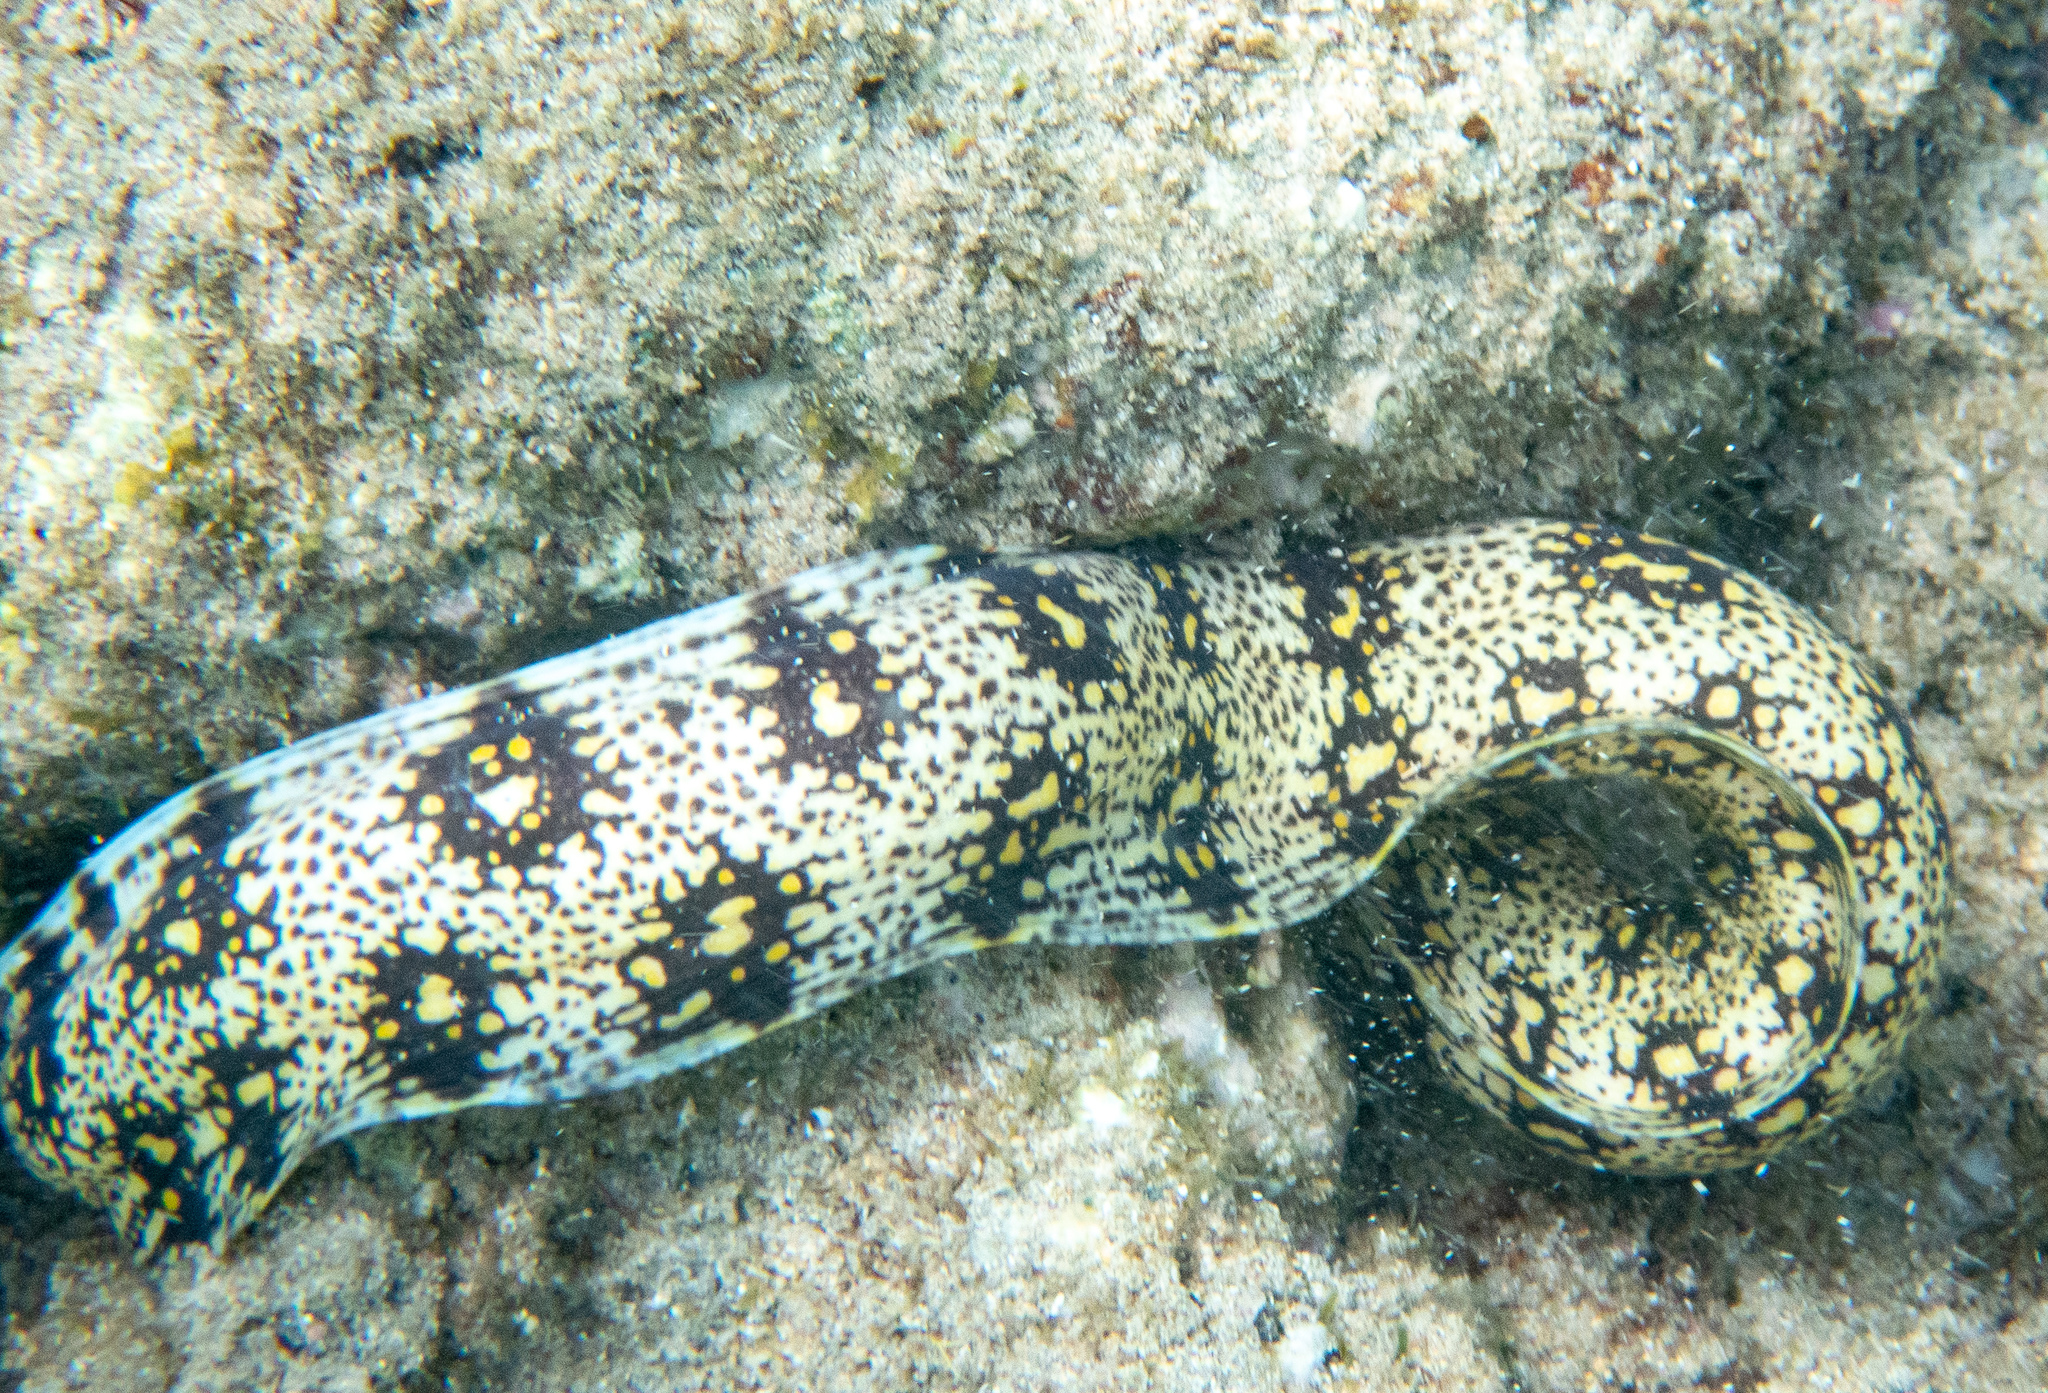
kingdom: Animalia
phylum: Chordata
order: Anguilliformes
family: Muraenidae
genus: Echidna
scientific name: Echidna nebulosa
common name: Snowflake moray
